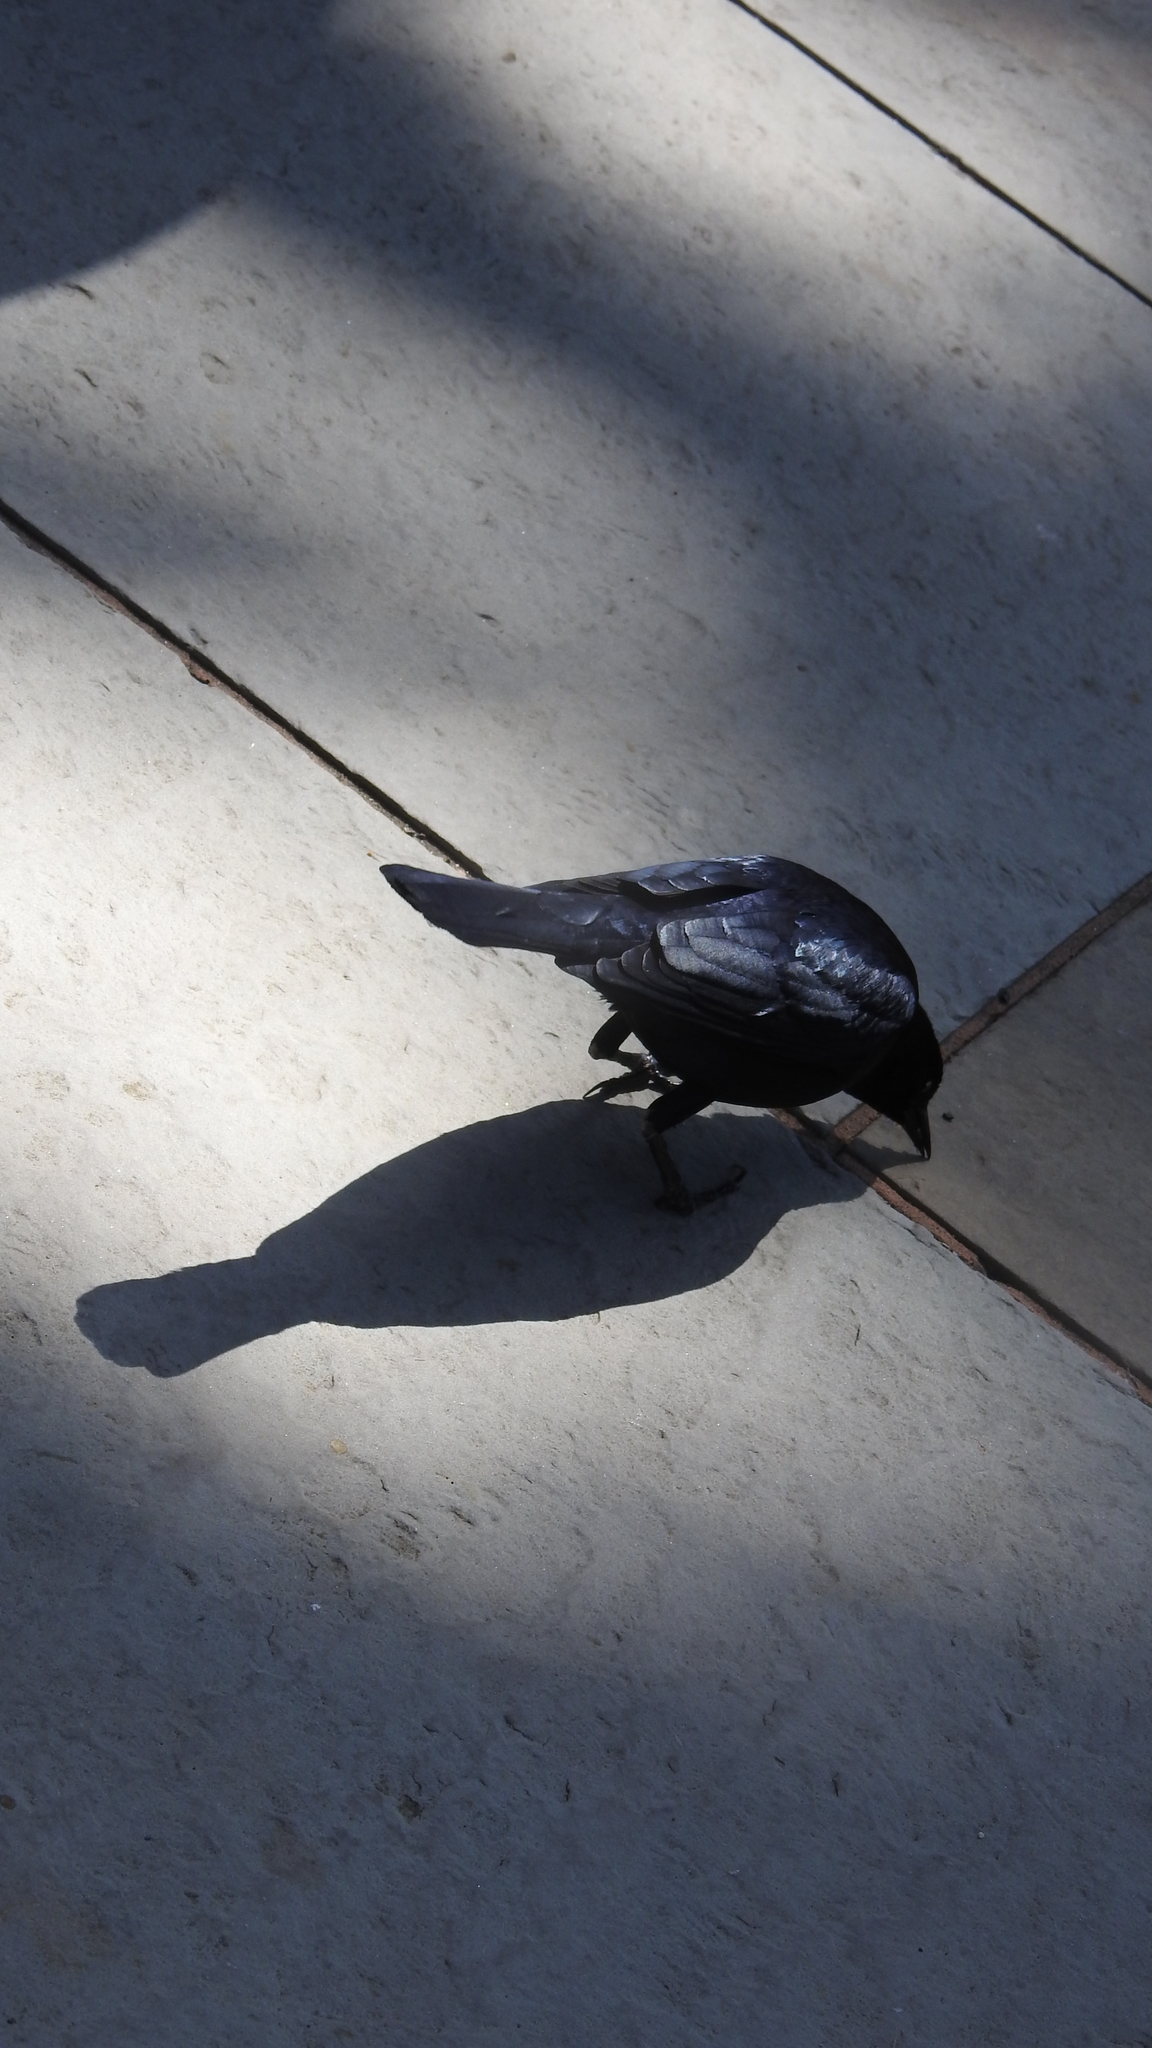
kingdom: Animalia
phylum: Chordata
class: Aves
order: Passeriformes
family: Icteridae
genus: Euphagus
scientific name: Euphagus cyanocephalus
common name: Brewer's blackbird
